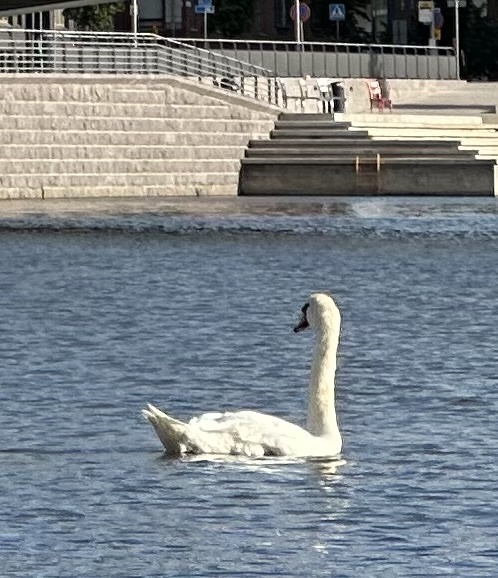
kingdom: Animalia
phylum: Chordata
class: Aves
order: Anseriformes
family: Anatidae
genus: Cygnus
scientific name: Cygnus olor
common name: Mute swan
